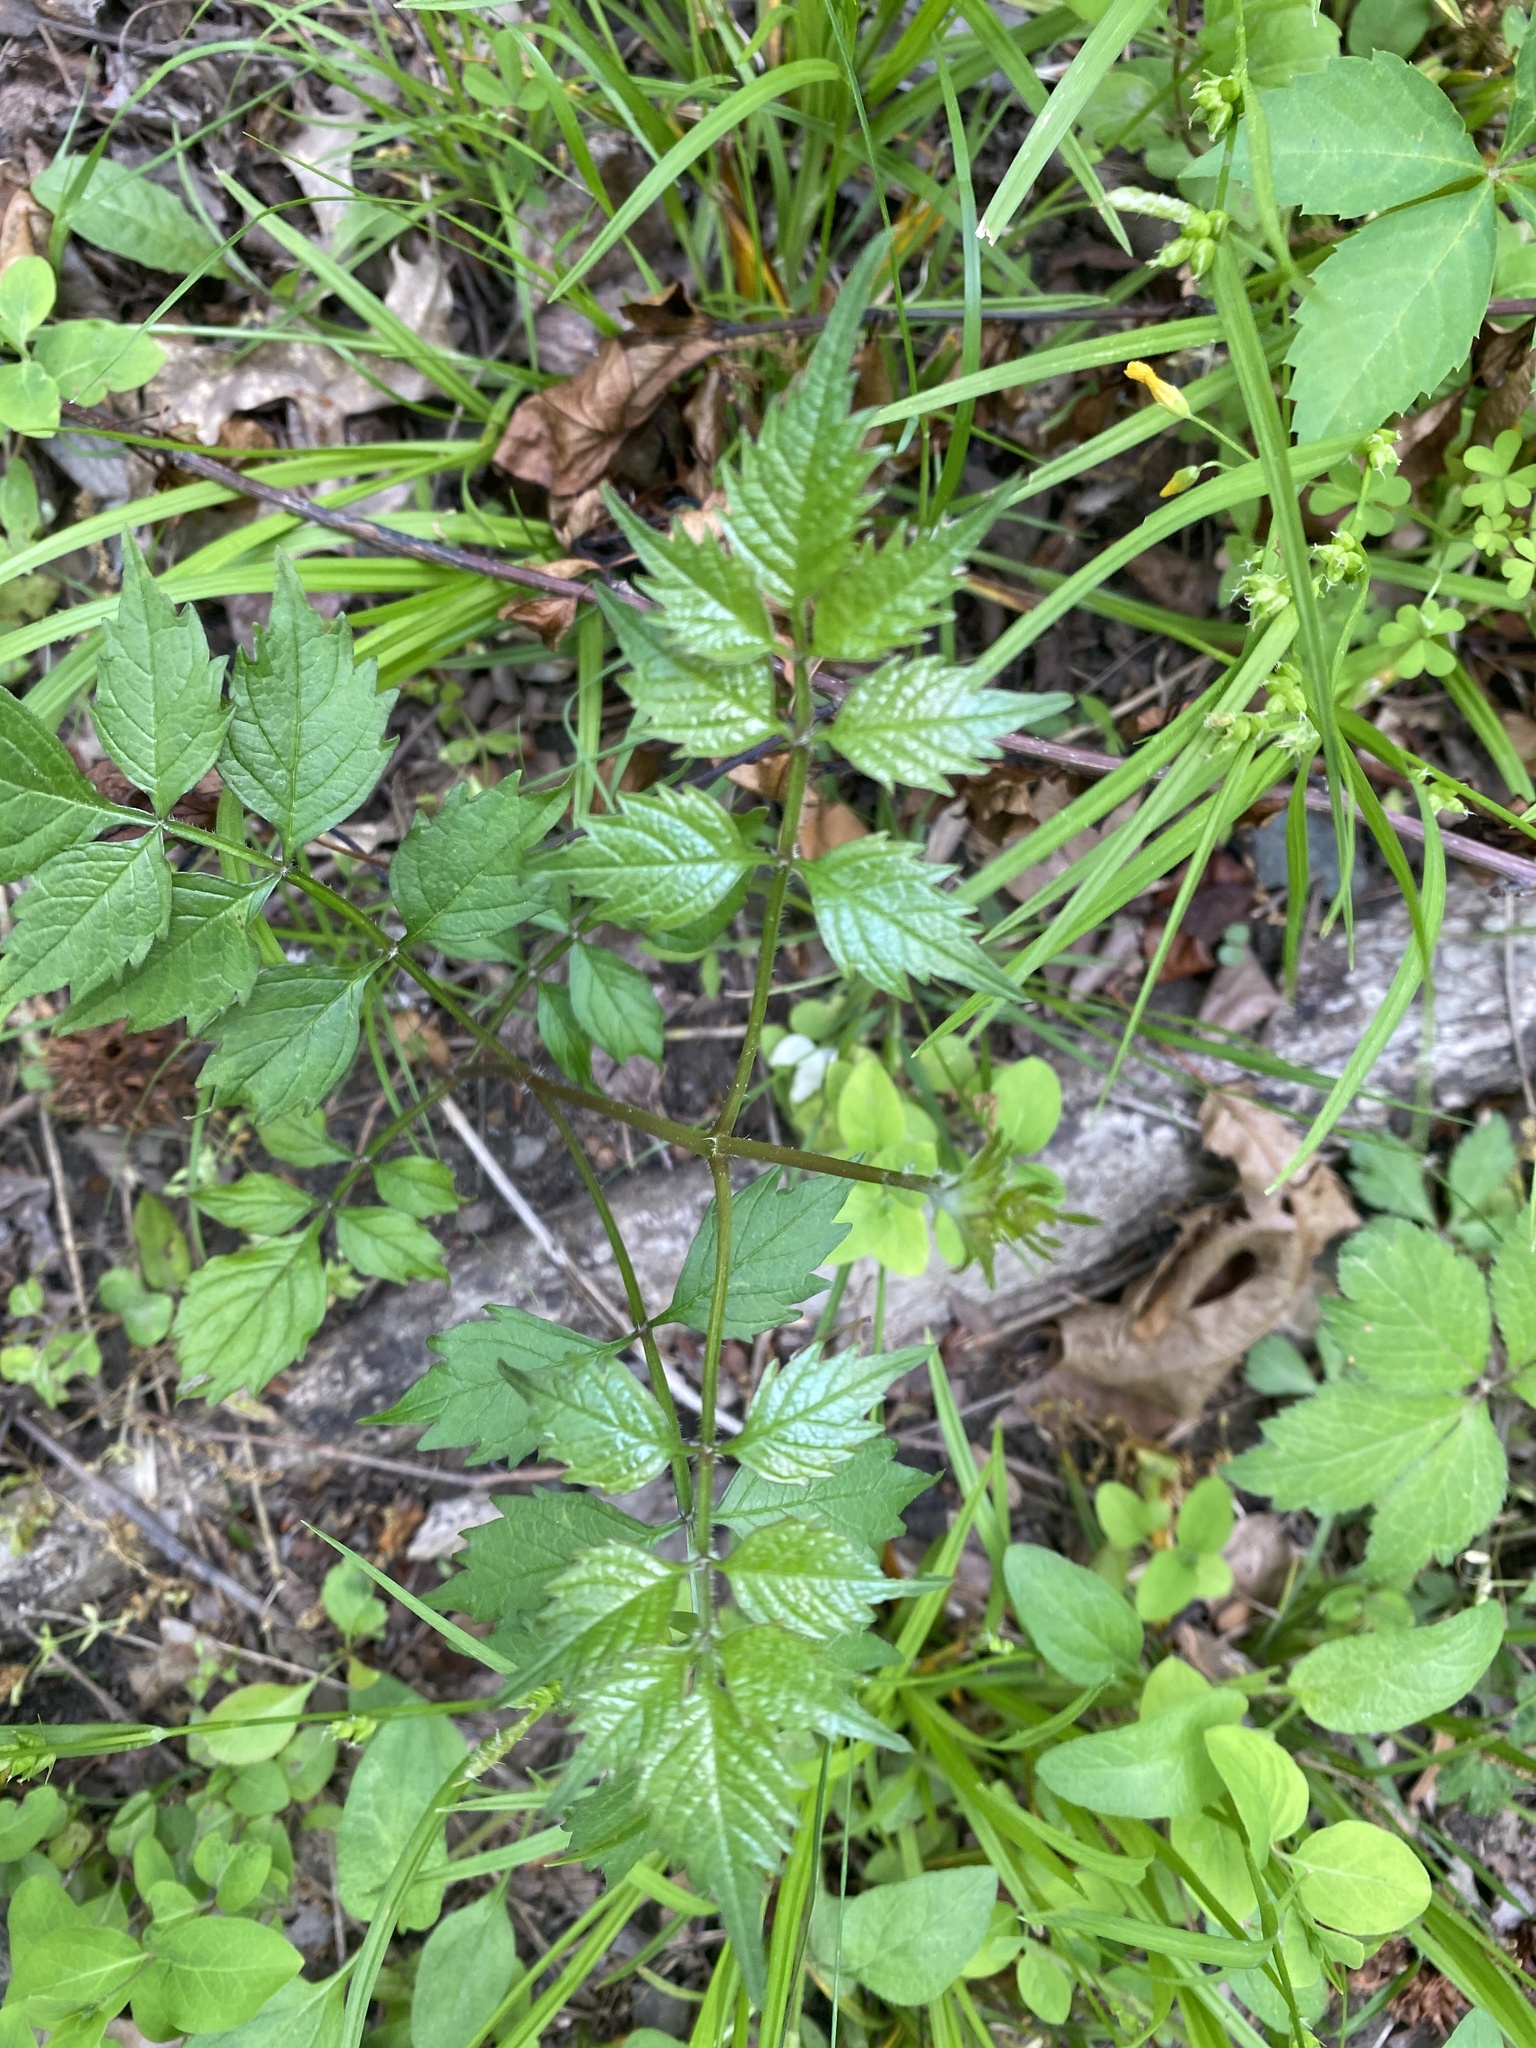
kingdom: Plantae
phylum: Tracheophyta
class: Magnoliopsida
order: Lamiales
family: Bignoniaceae
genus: Campsis
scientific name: Campsis radicans
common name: Trumpet-creeper
